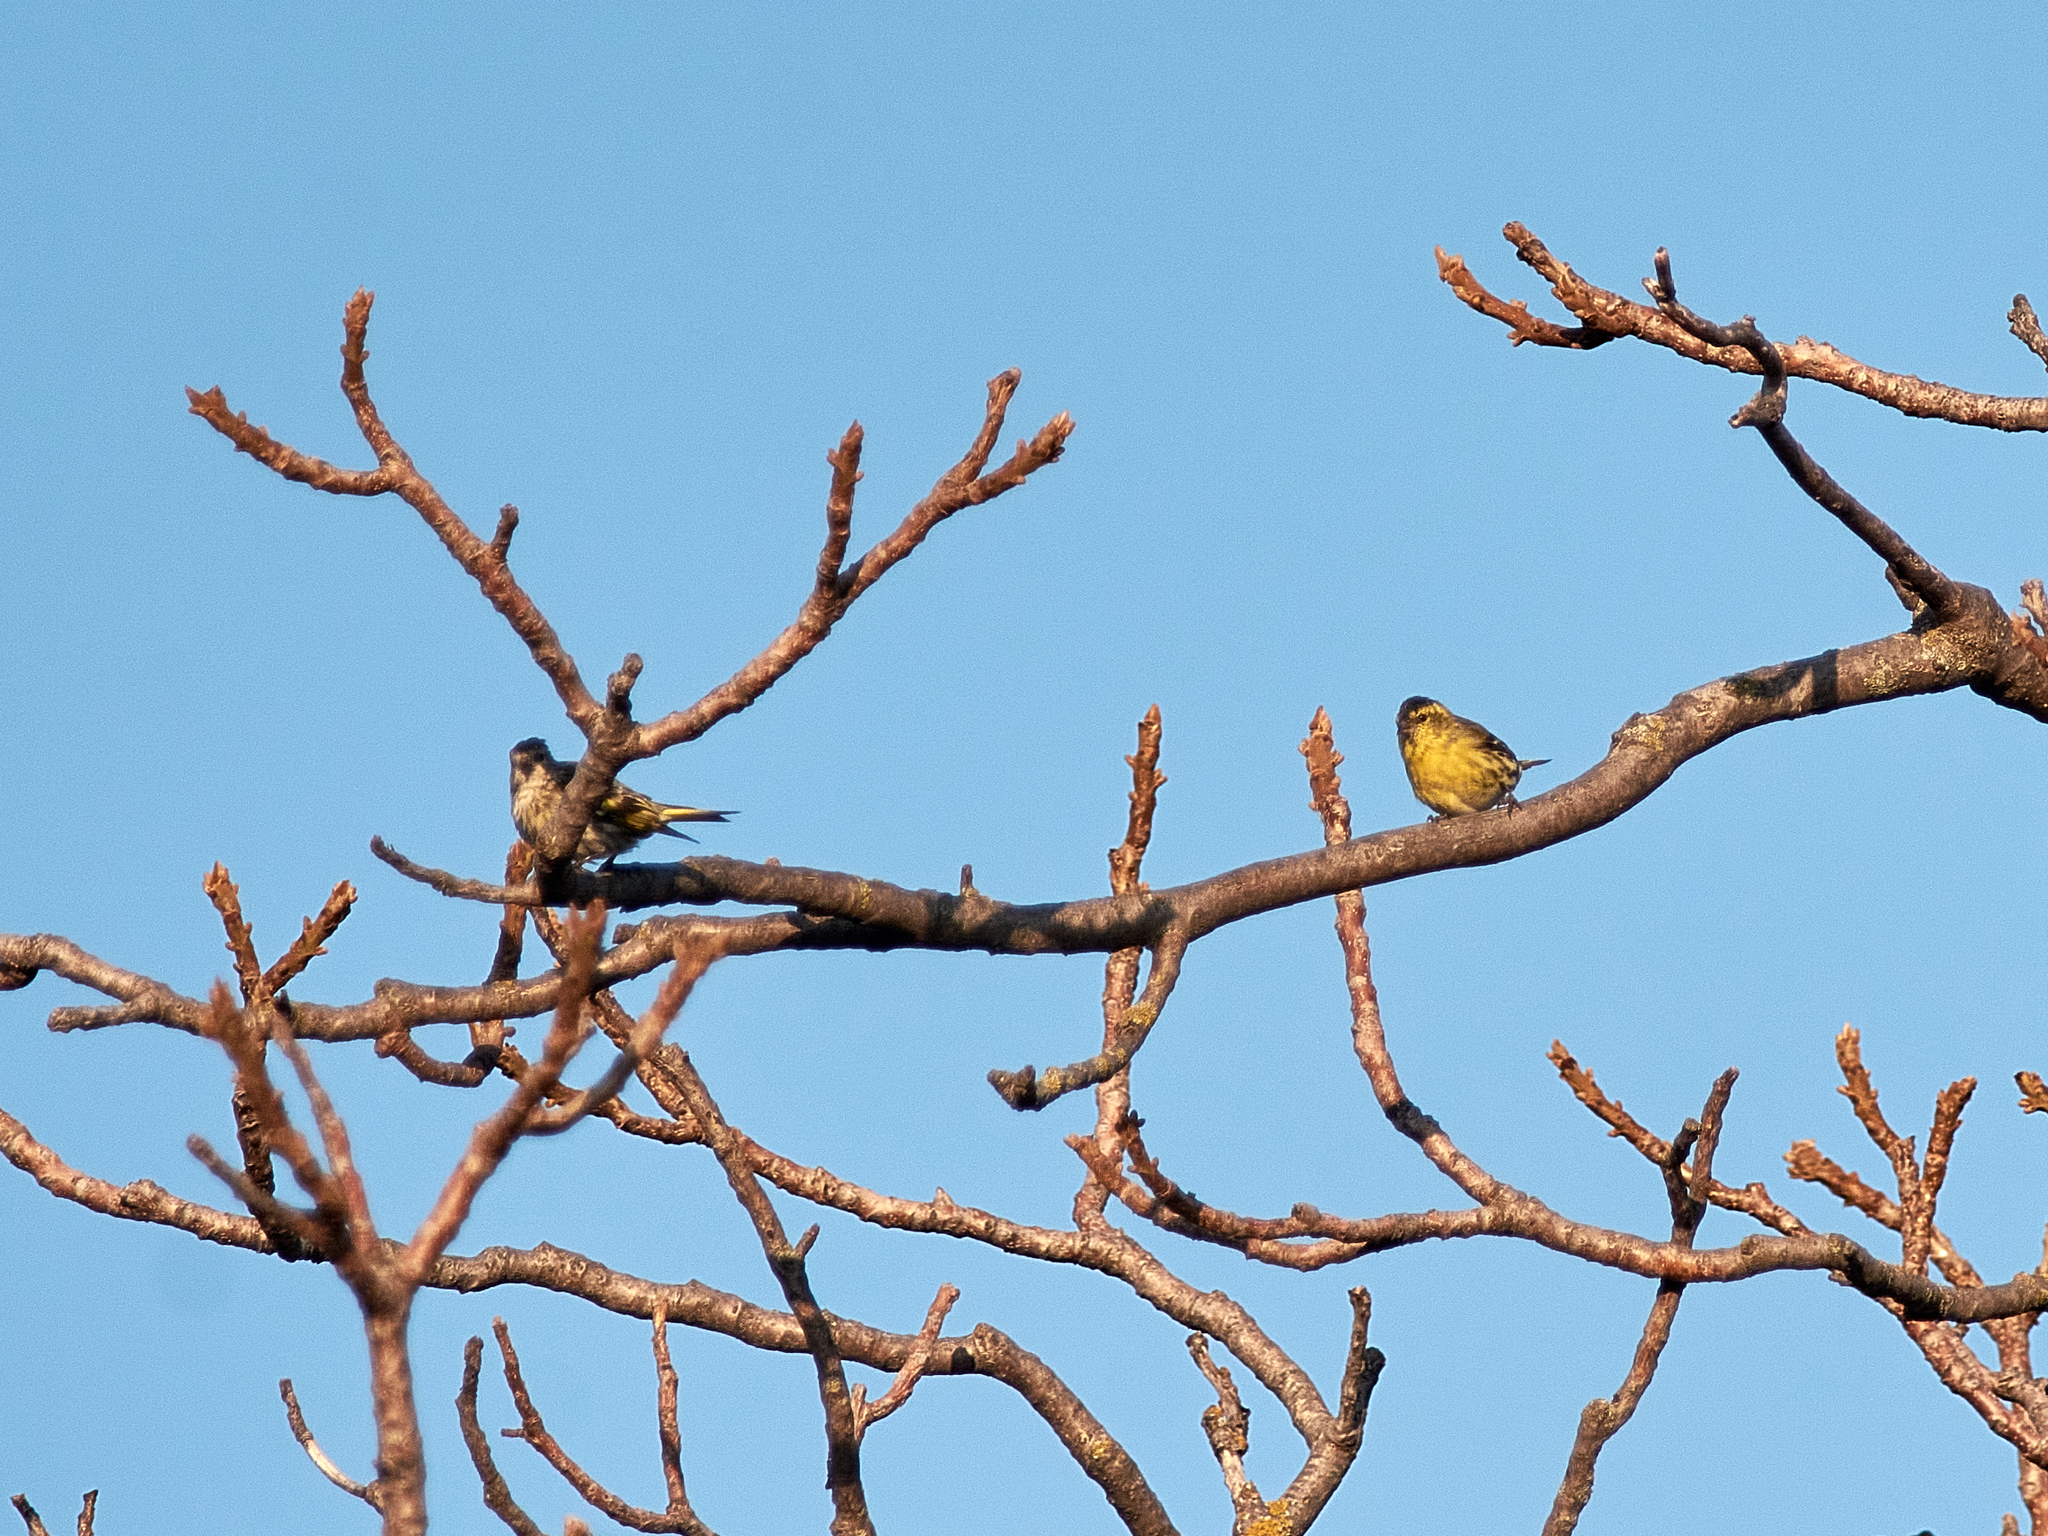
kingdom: Animalia
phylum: Chordata
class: Aves
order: Passeriformes
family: Fringillidae
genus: Spinus
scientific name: Spinus spinus
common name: Eurasian siskin
